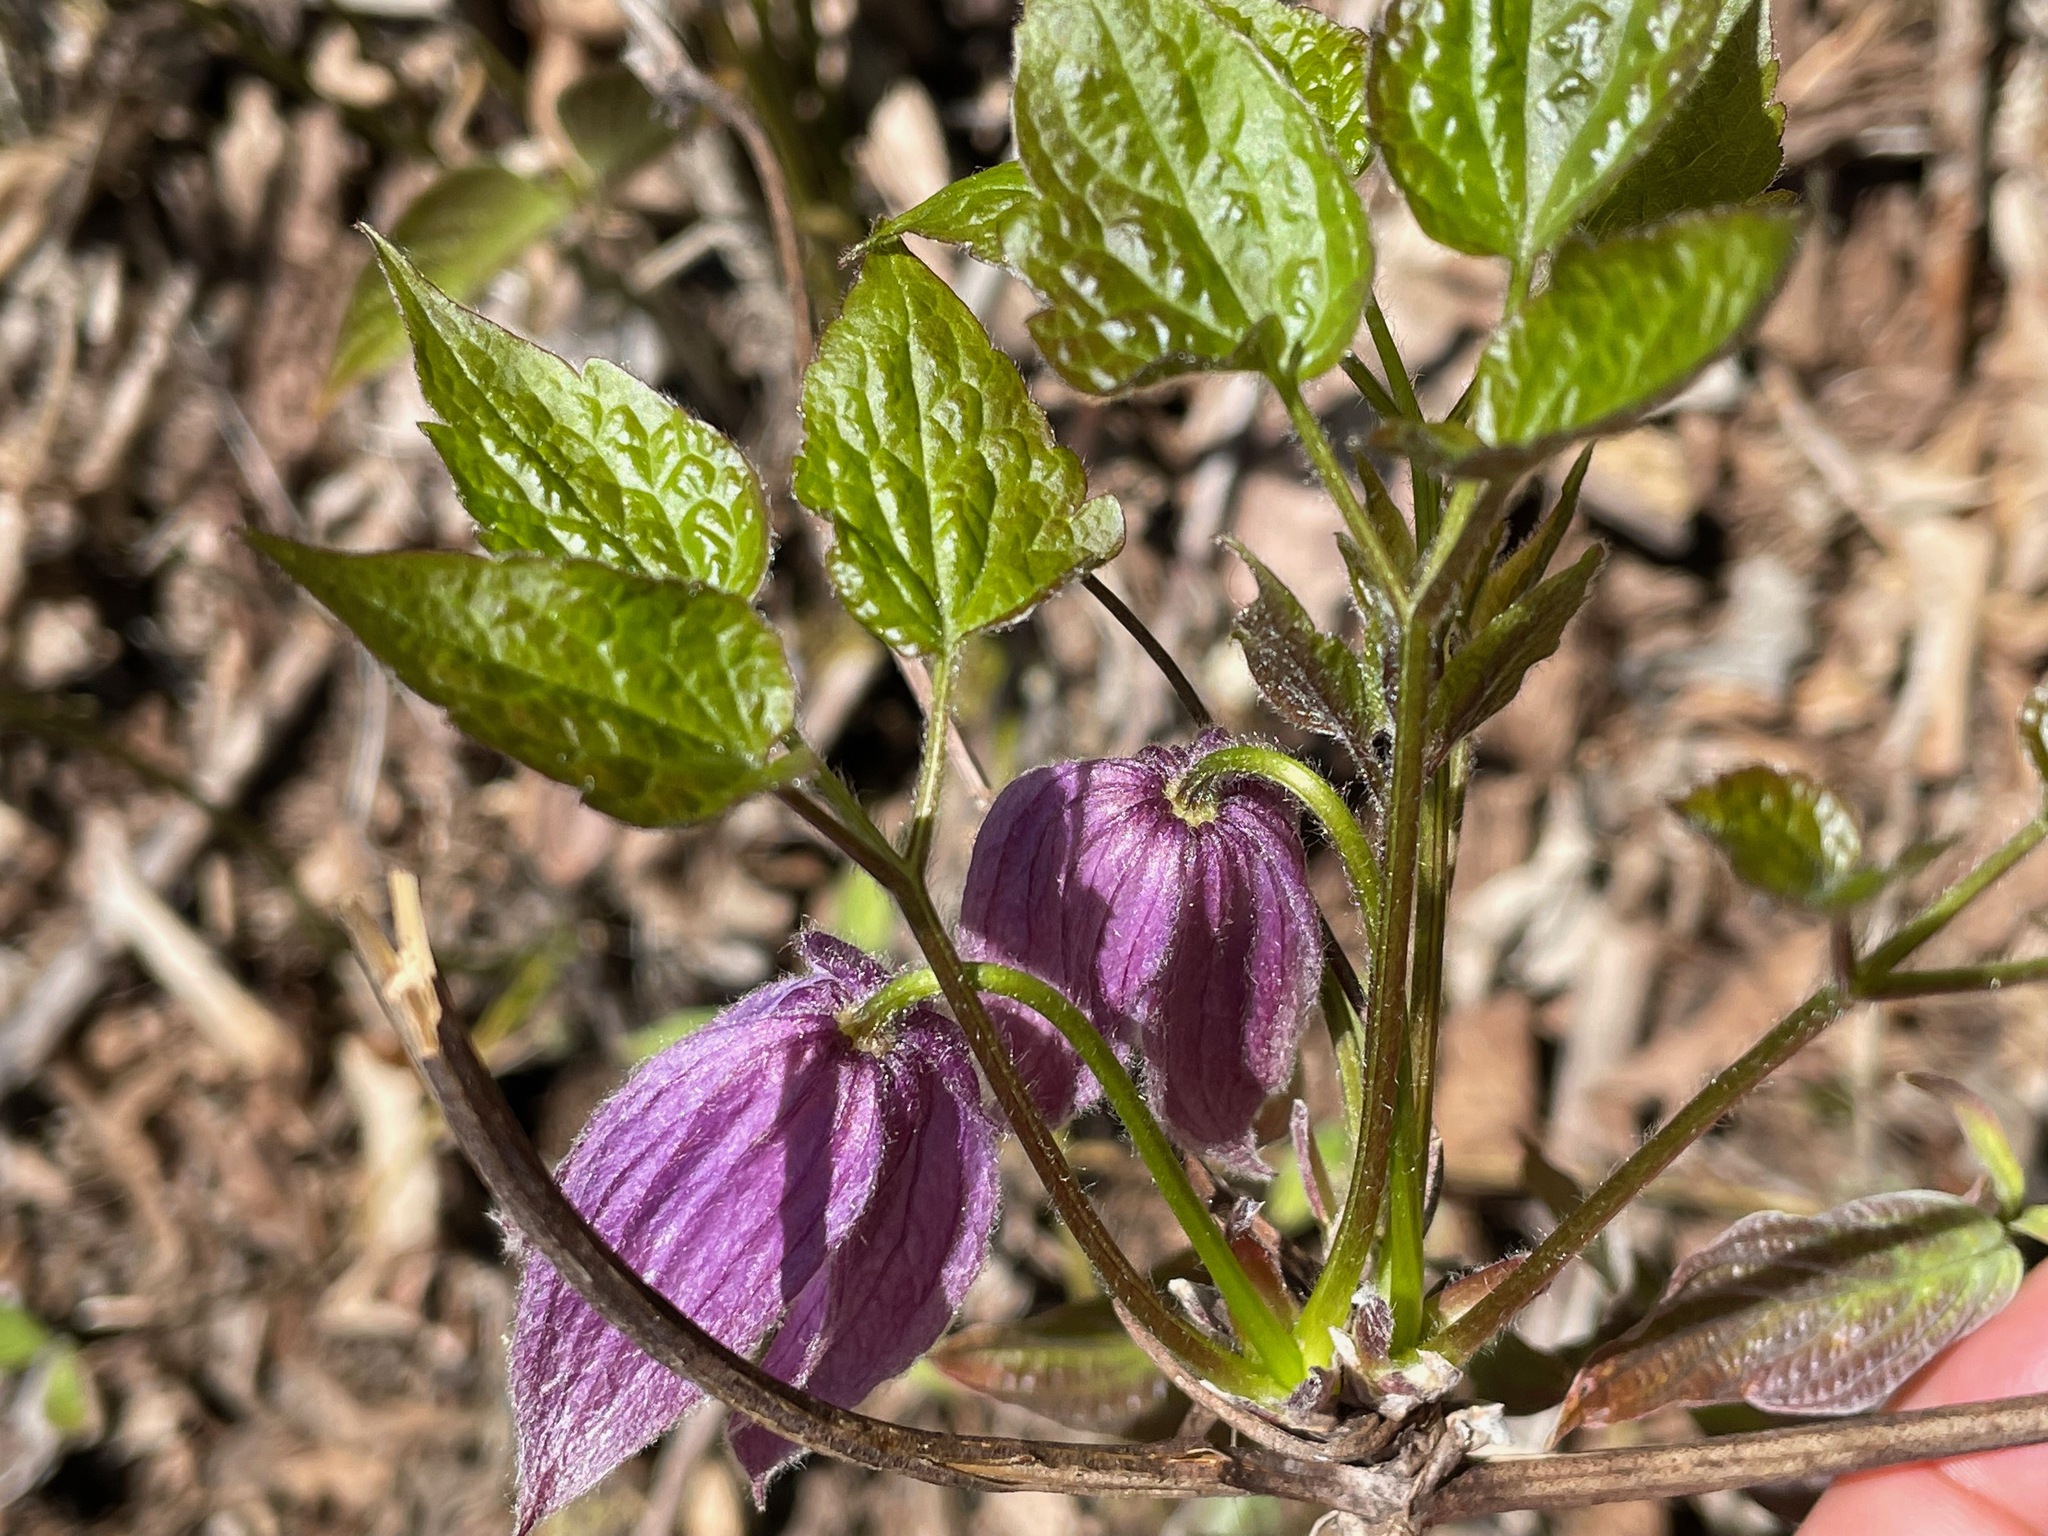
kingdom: Plantae
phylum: Tracheophyta
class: Magnoliopsida
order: Ranunculales
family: Ranunculaceae
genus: Clematis
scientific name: Clematis occidentalis
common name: Purple clematis
